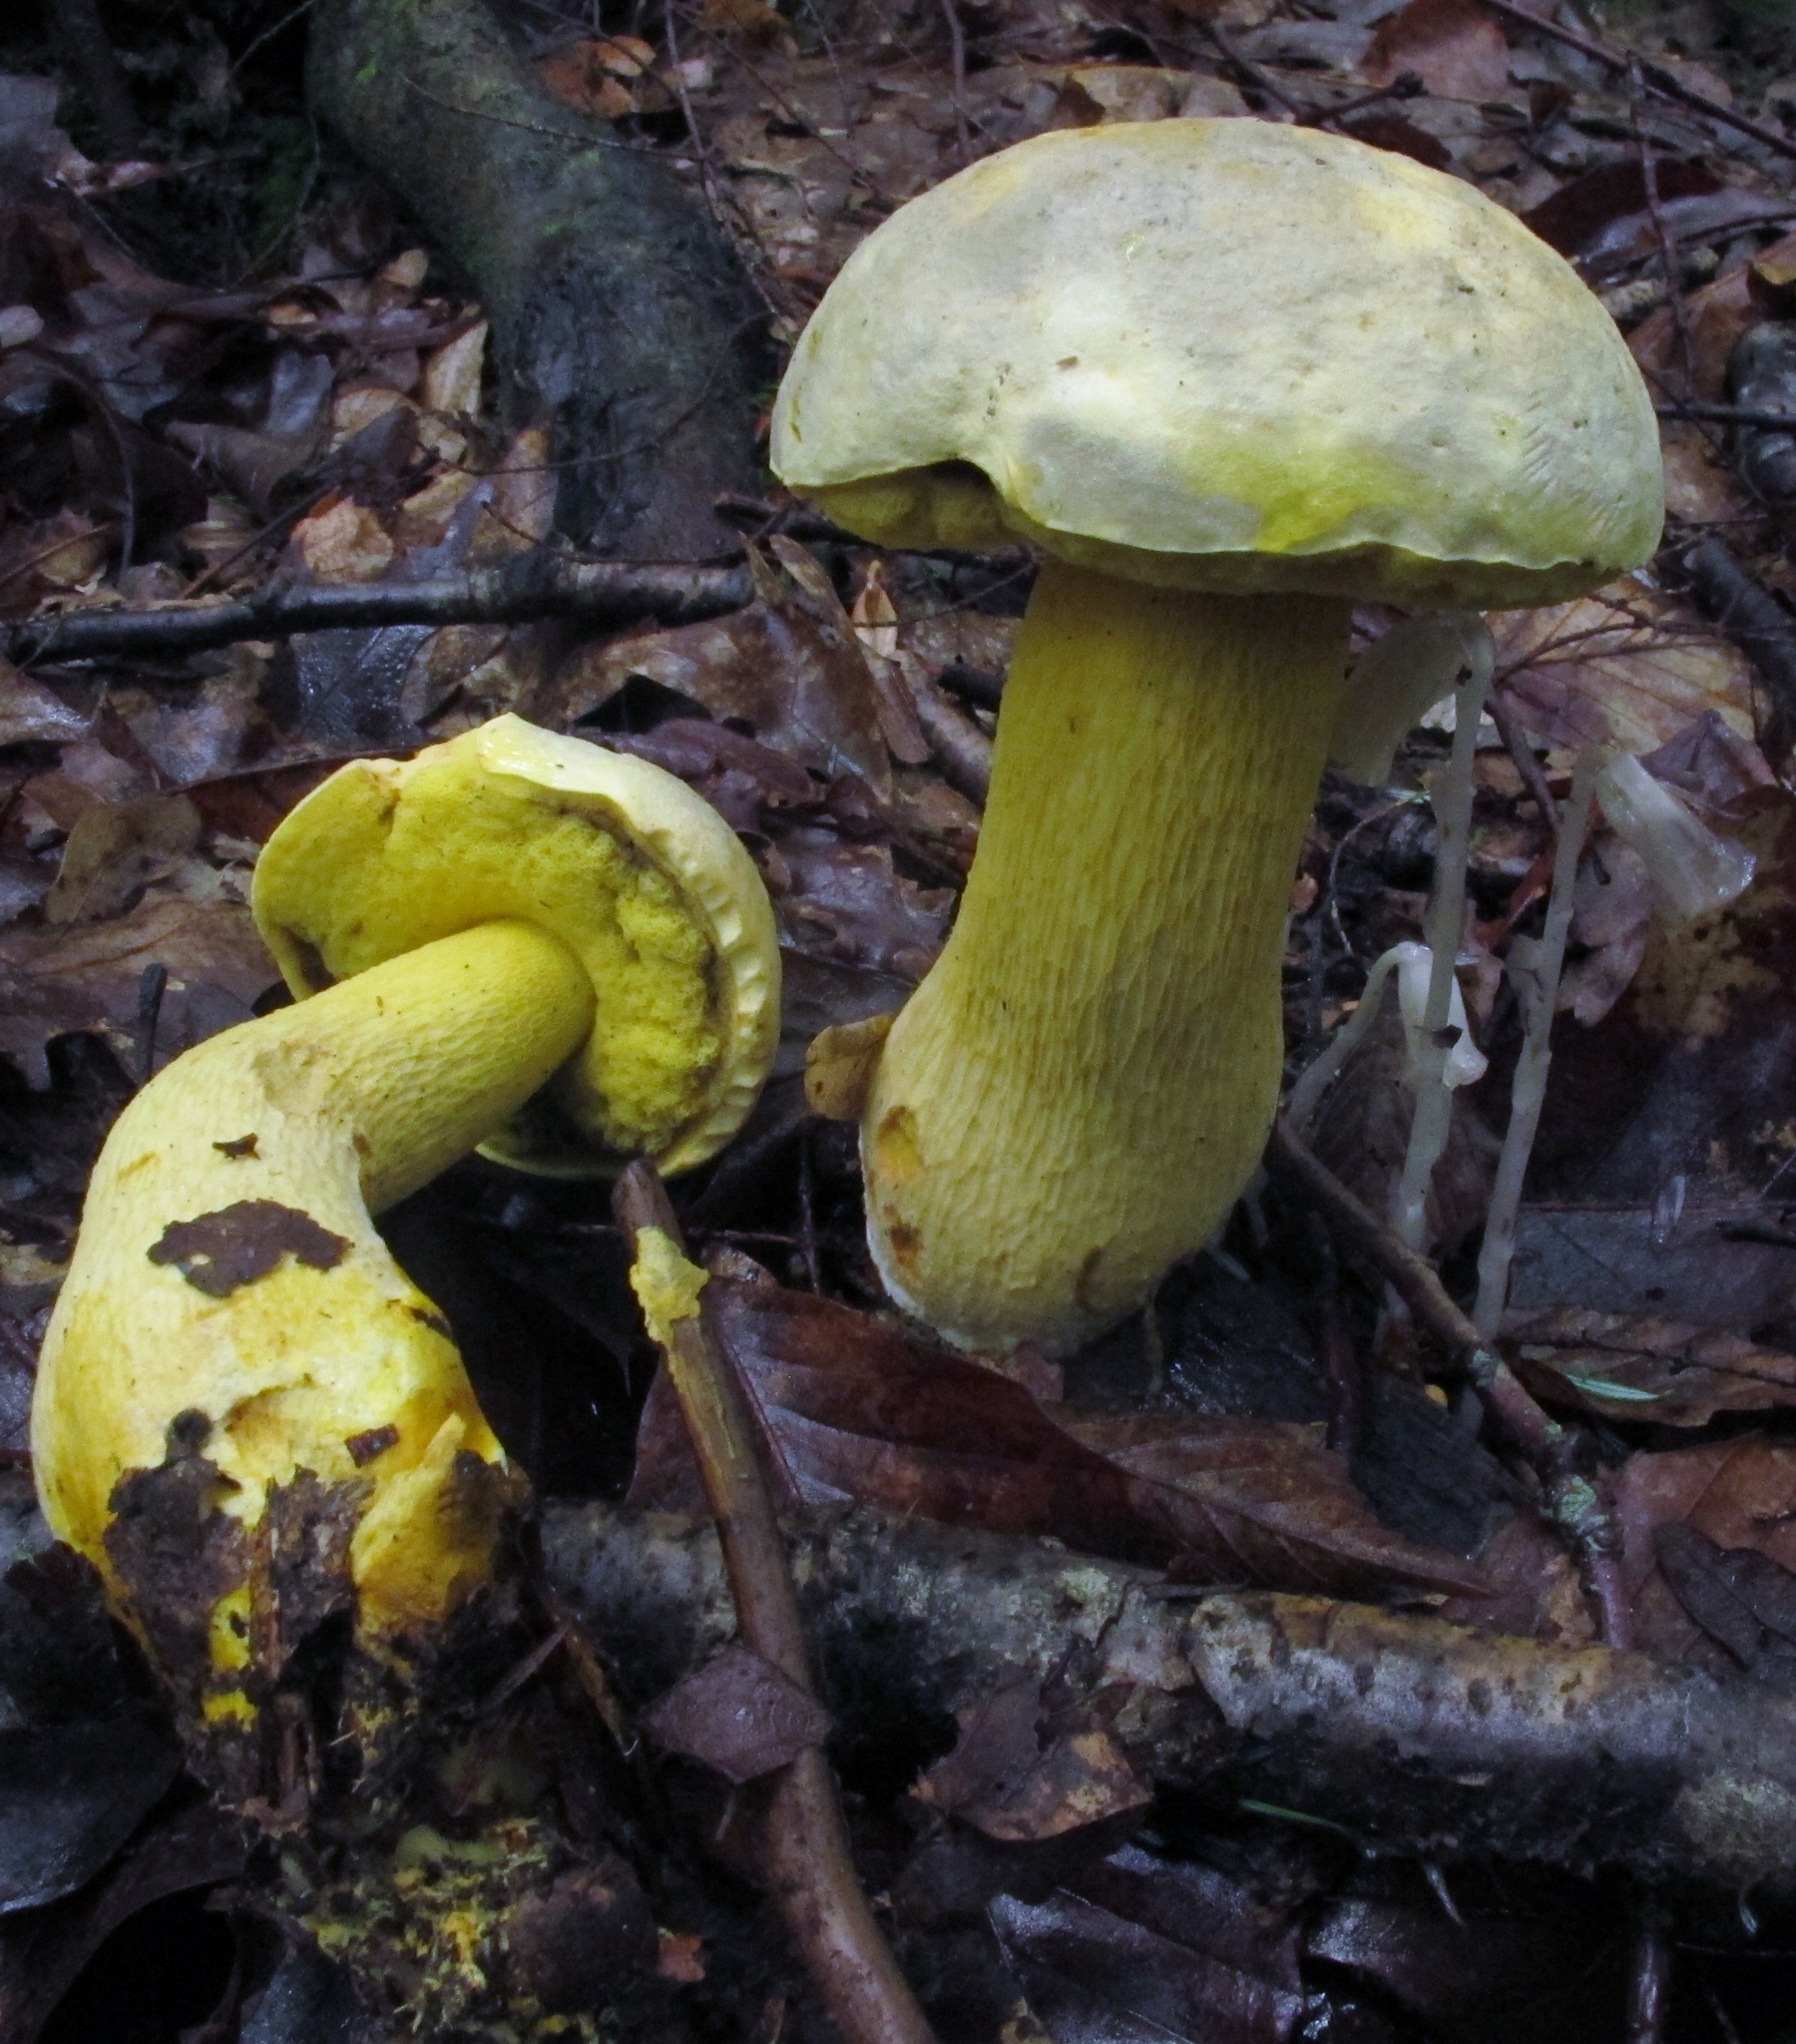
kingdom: Fungi
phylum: Basidiomycota
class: Agaricomycetes
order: Boletales
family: Boletaceae
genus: Retiboletus
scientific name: Retiboletus ornatipes
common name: Ornate-stalked bolete
